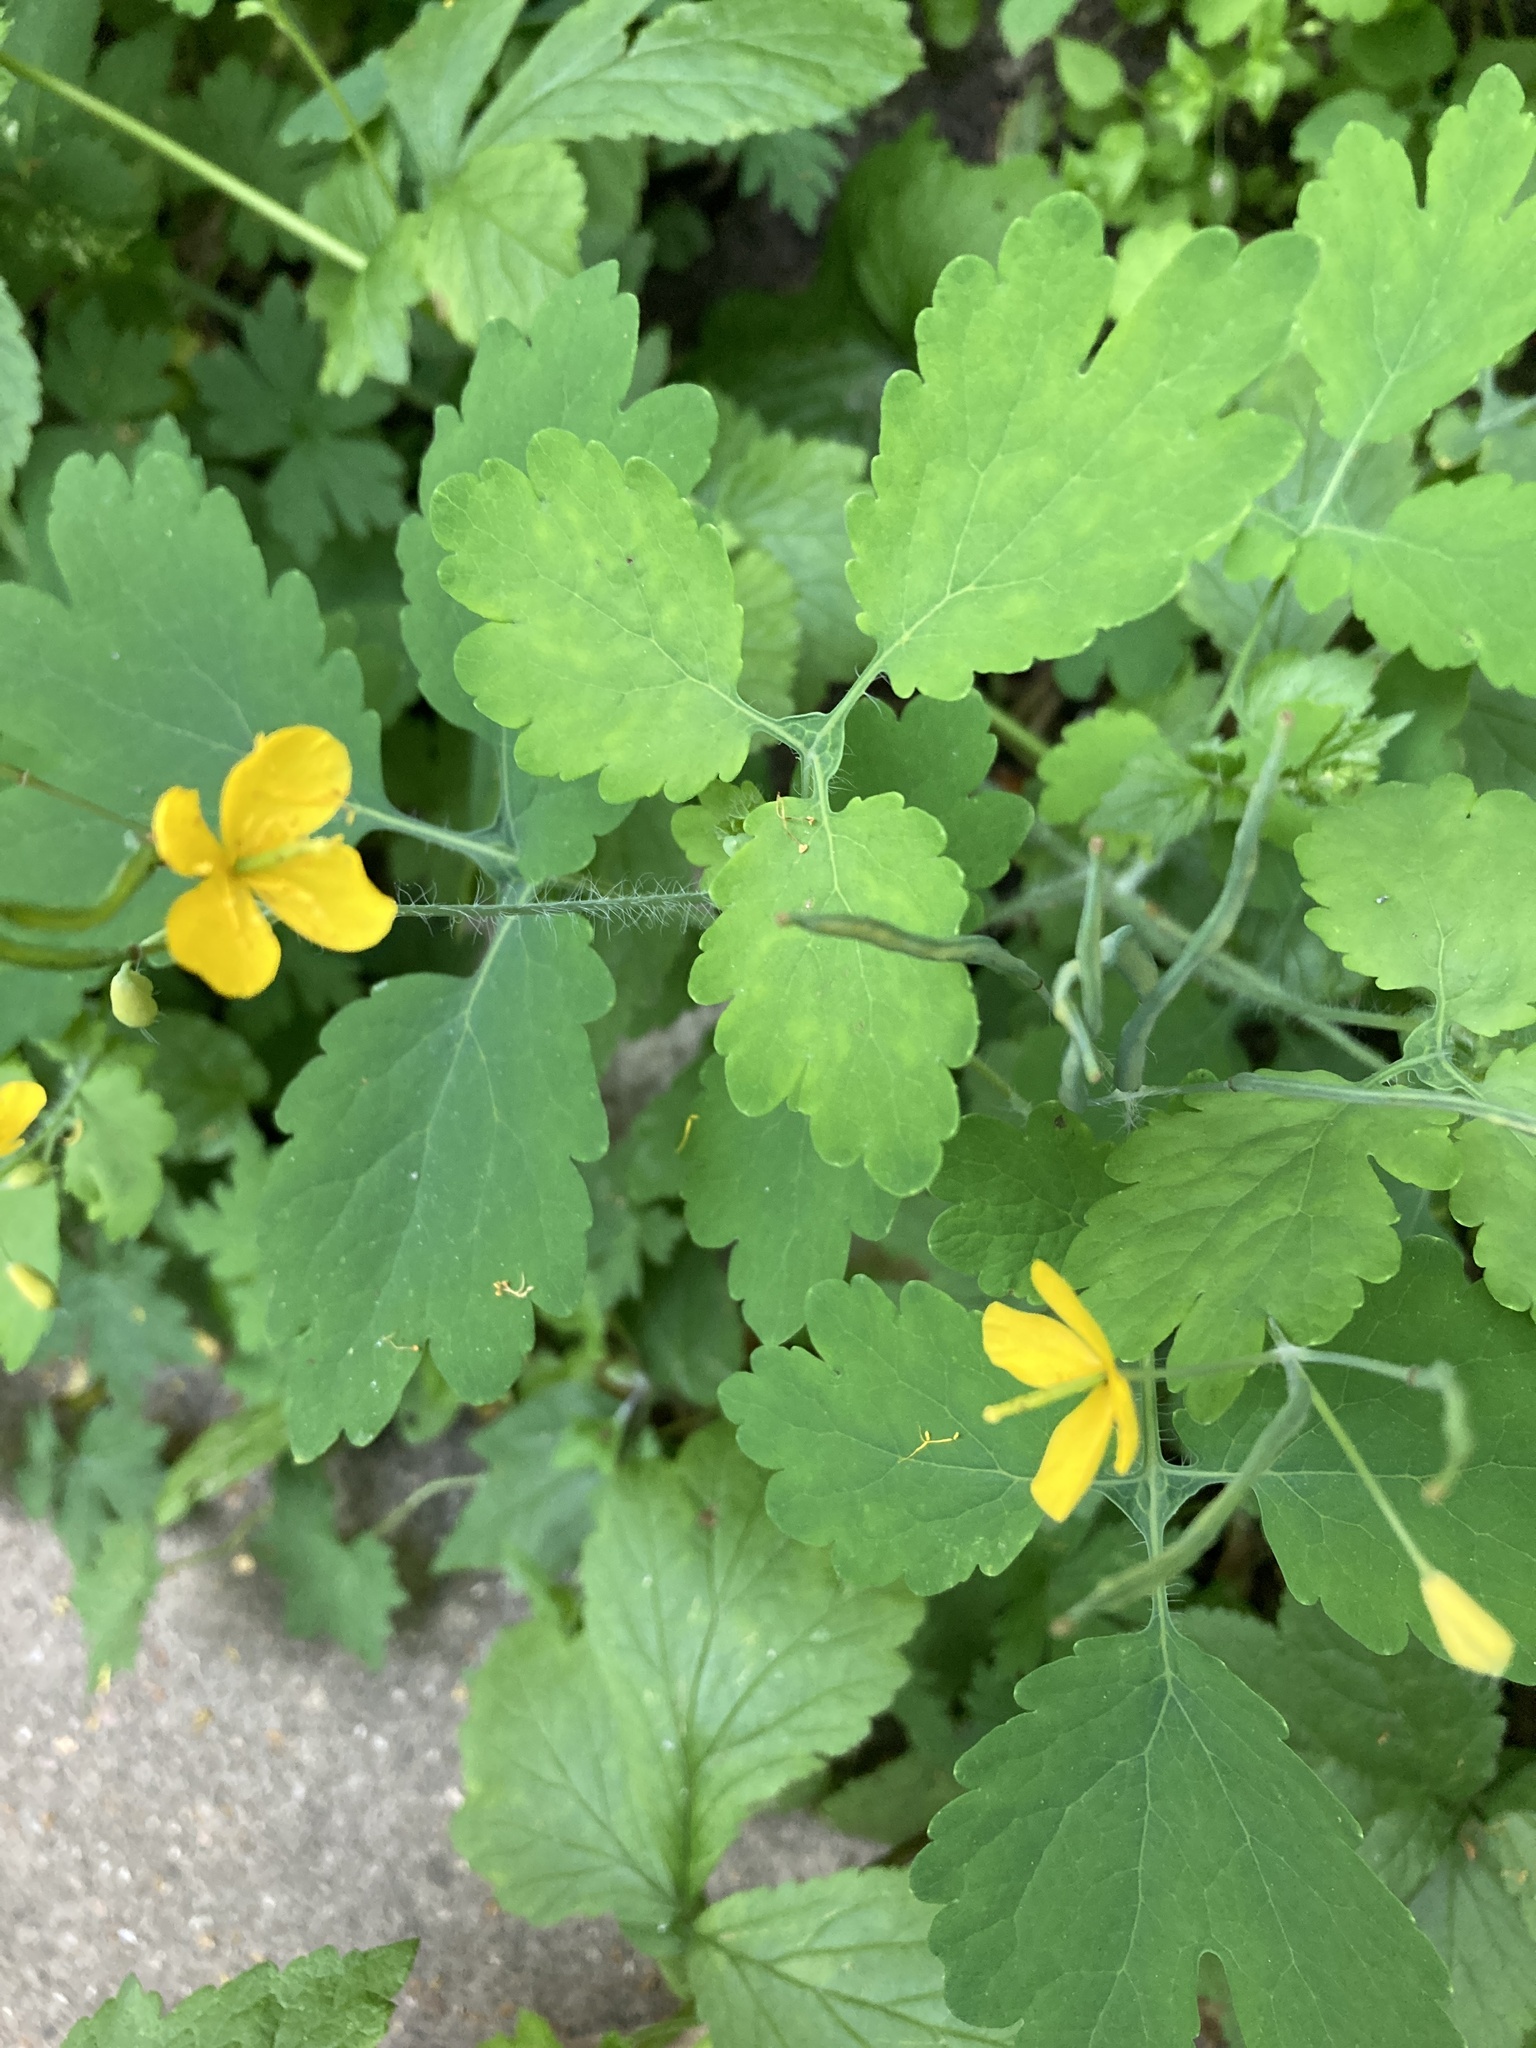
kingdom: Plantae
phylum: Tracheophyta
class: Magnoliopsida
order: Ranunculales
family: Papaveraceae
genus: Chelidonium
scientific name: Chelidonium majus
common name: Greater celandine
